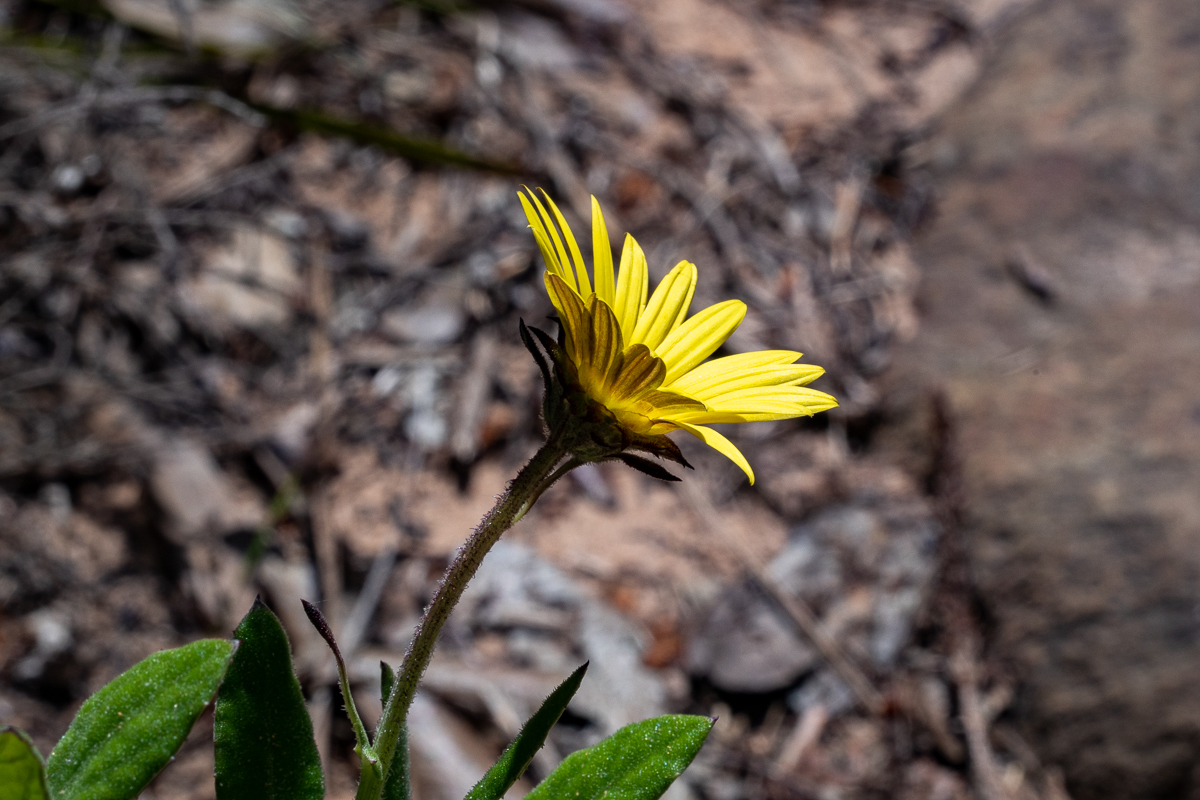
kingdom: Plantae
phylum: Tracheophyta
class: Magnoliopsida
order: Asterales
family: Asteraceae
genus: Arctotis
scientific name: Arctotis scabra
